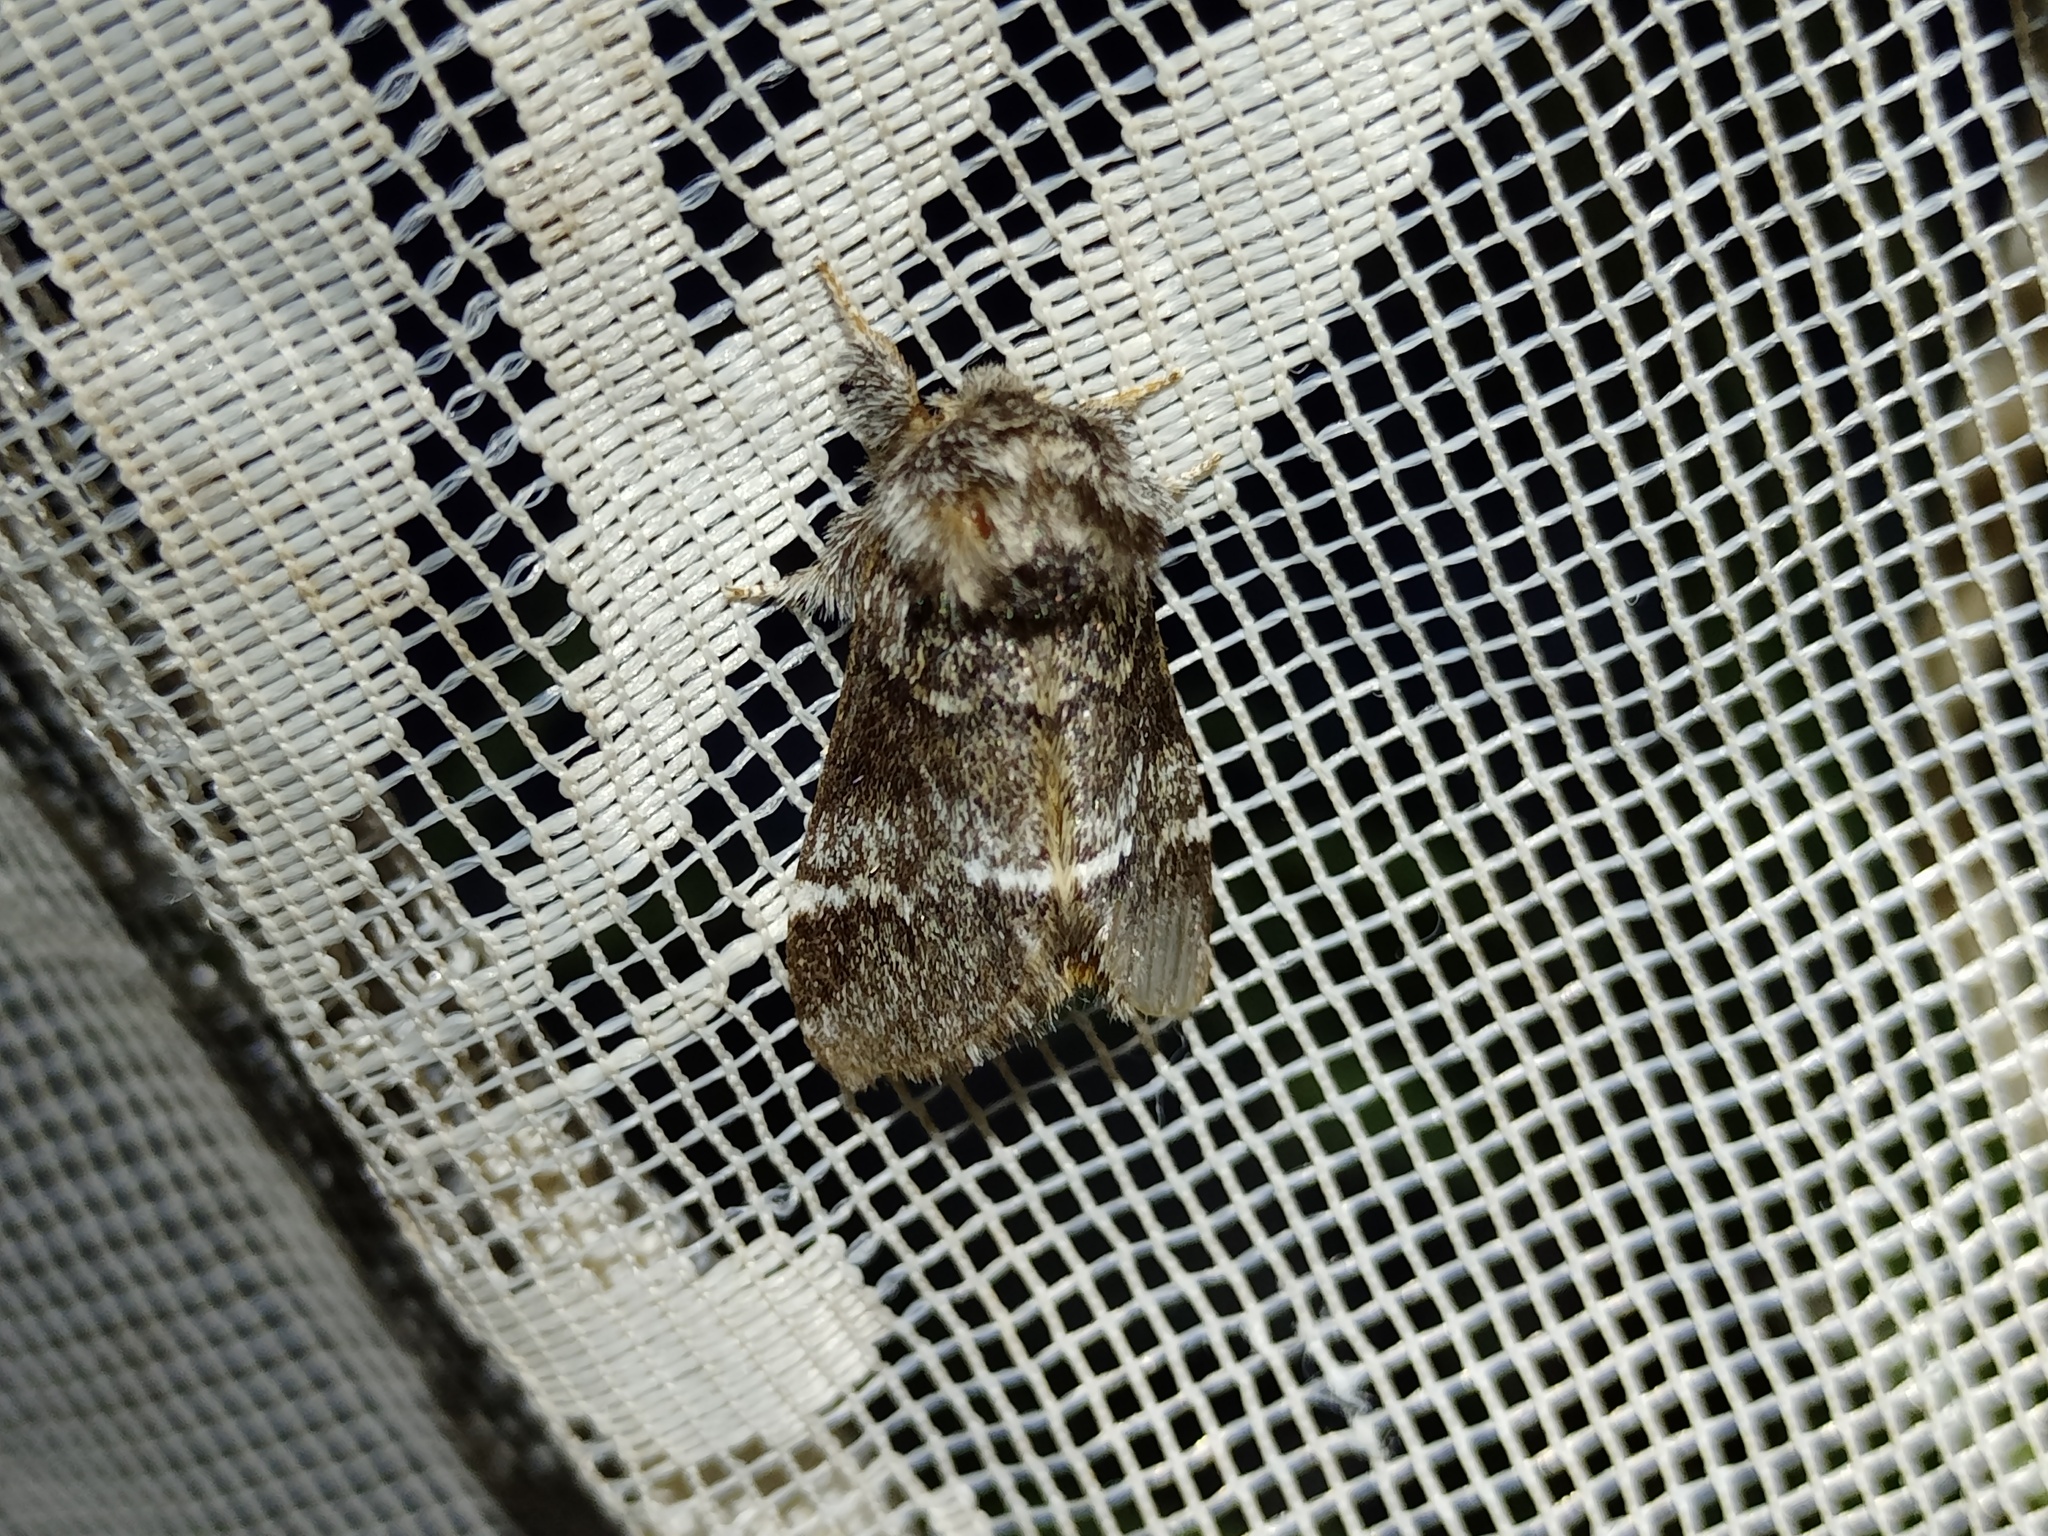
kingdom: Animalia
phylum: Arthropoda
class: Insecta
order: Lepidoptera
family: Notodontidae
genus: Drymonia
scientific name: Drymonia dodonaea
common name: Marbled brown
